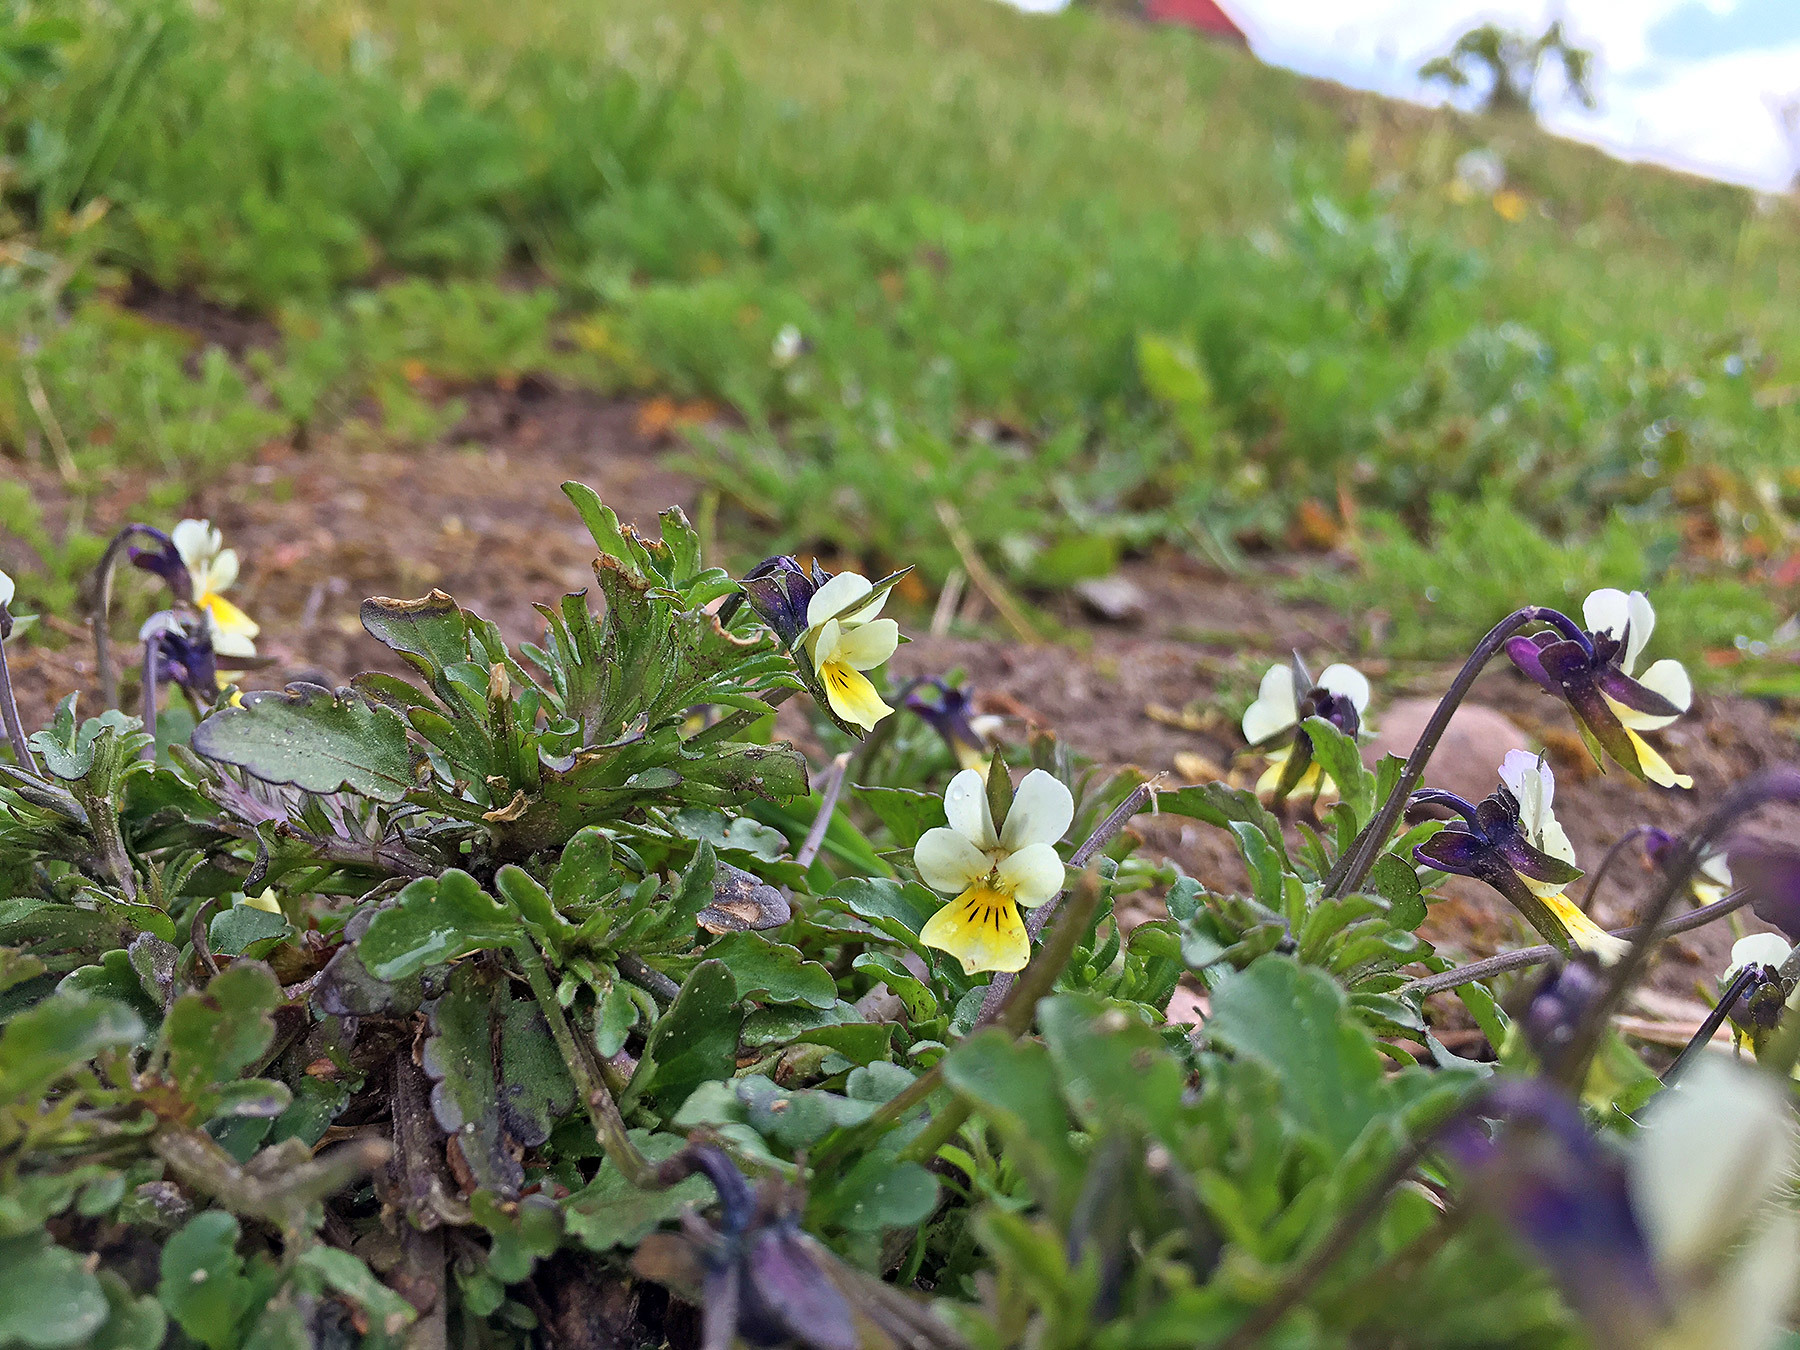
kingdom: Plantae
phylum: Tracheophyta
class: Magnoliopsida
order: Malpighiales
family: Violaceae
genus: Viola
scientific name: Viola arvensis
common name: Field pansy
